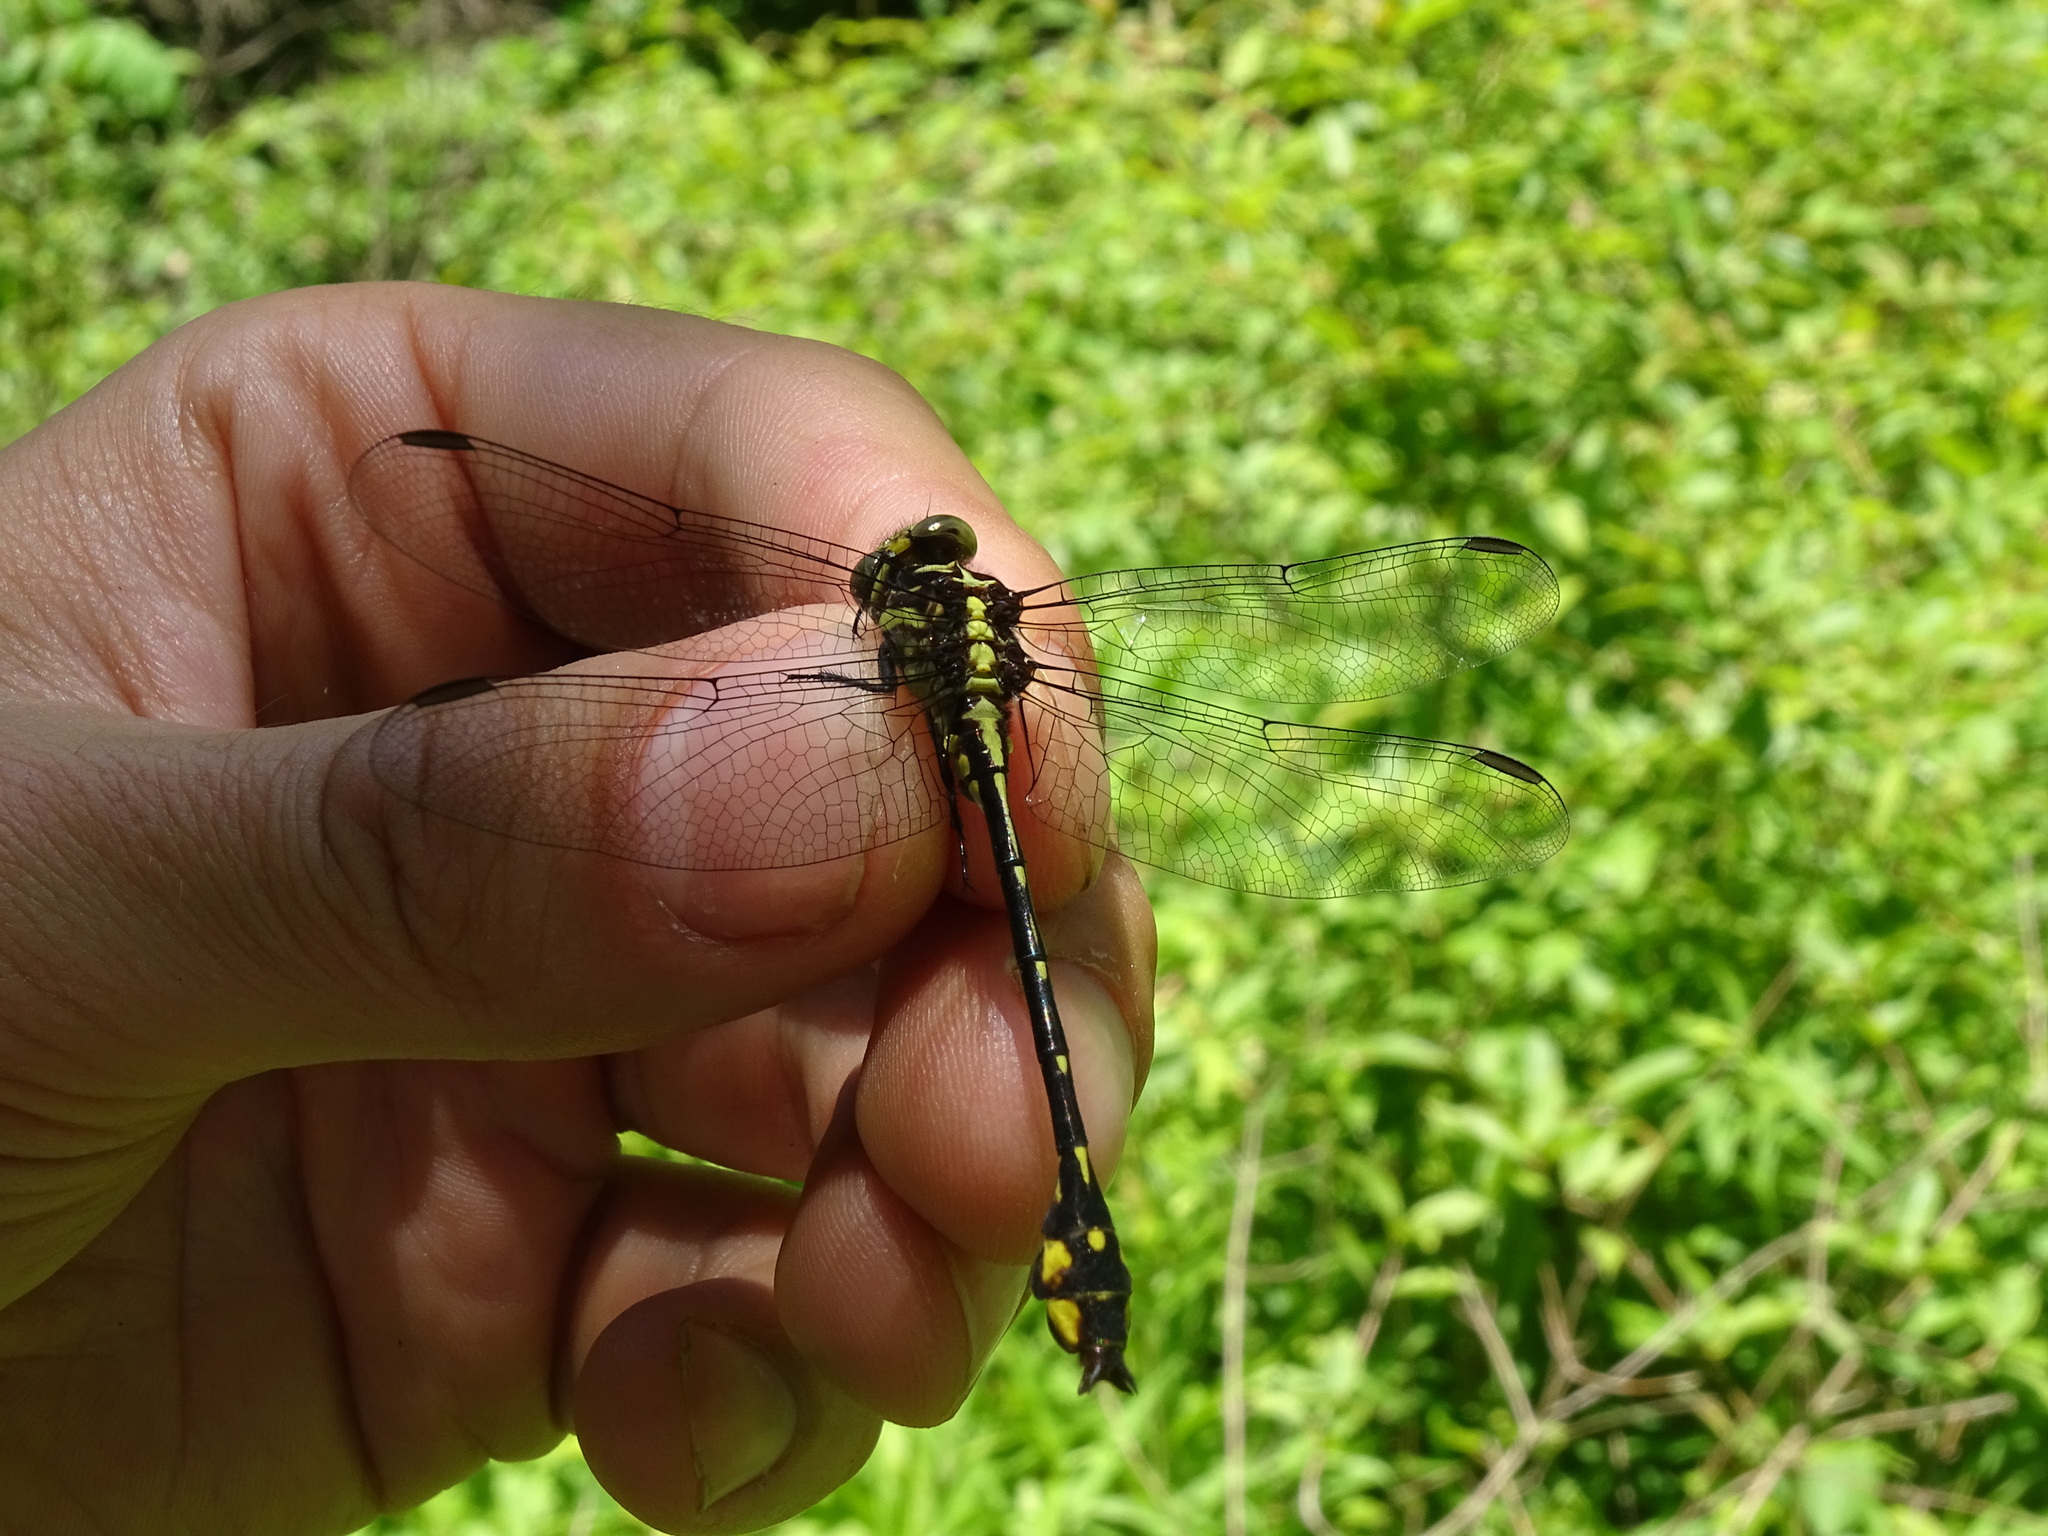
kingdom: Animalia
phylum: Arthropoda
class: Insecta
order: Odonata
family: Gomphidae
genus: Stylurus
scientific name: Stylurus amnicola
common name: Riverine clubtail
